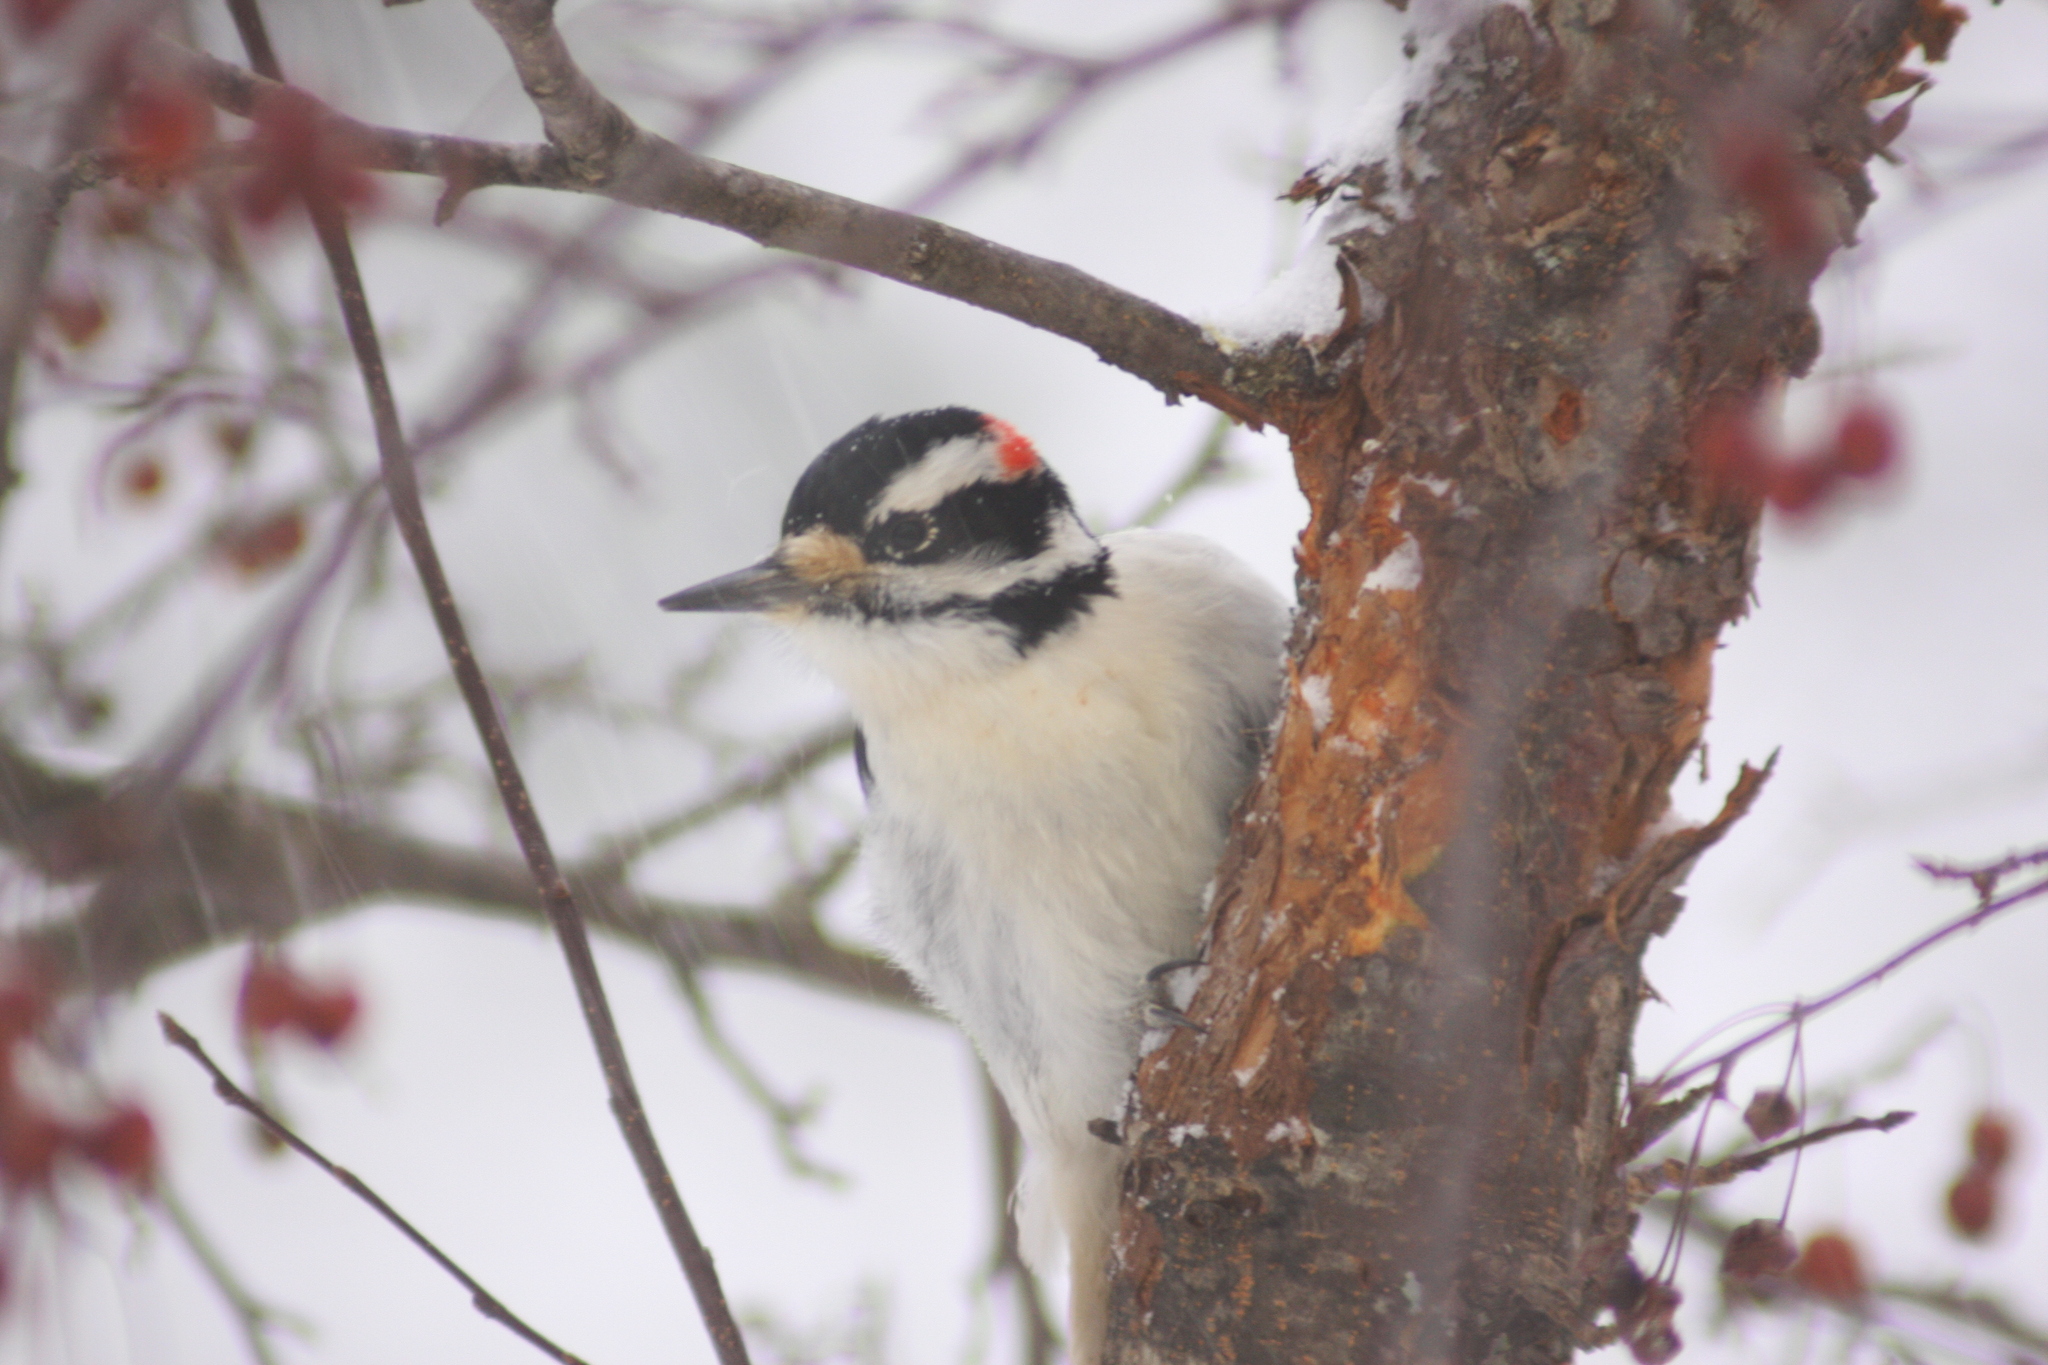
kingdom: Animalia
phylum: Chordata
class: Aves
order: Piciformes
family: Picidae
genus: Leuconotopicus
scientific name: Leuconotopicus villosus
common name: Hairy woodpecker
